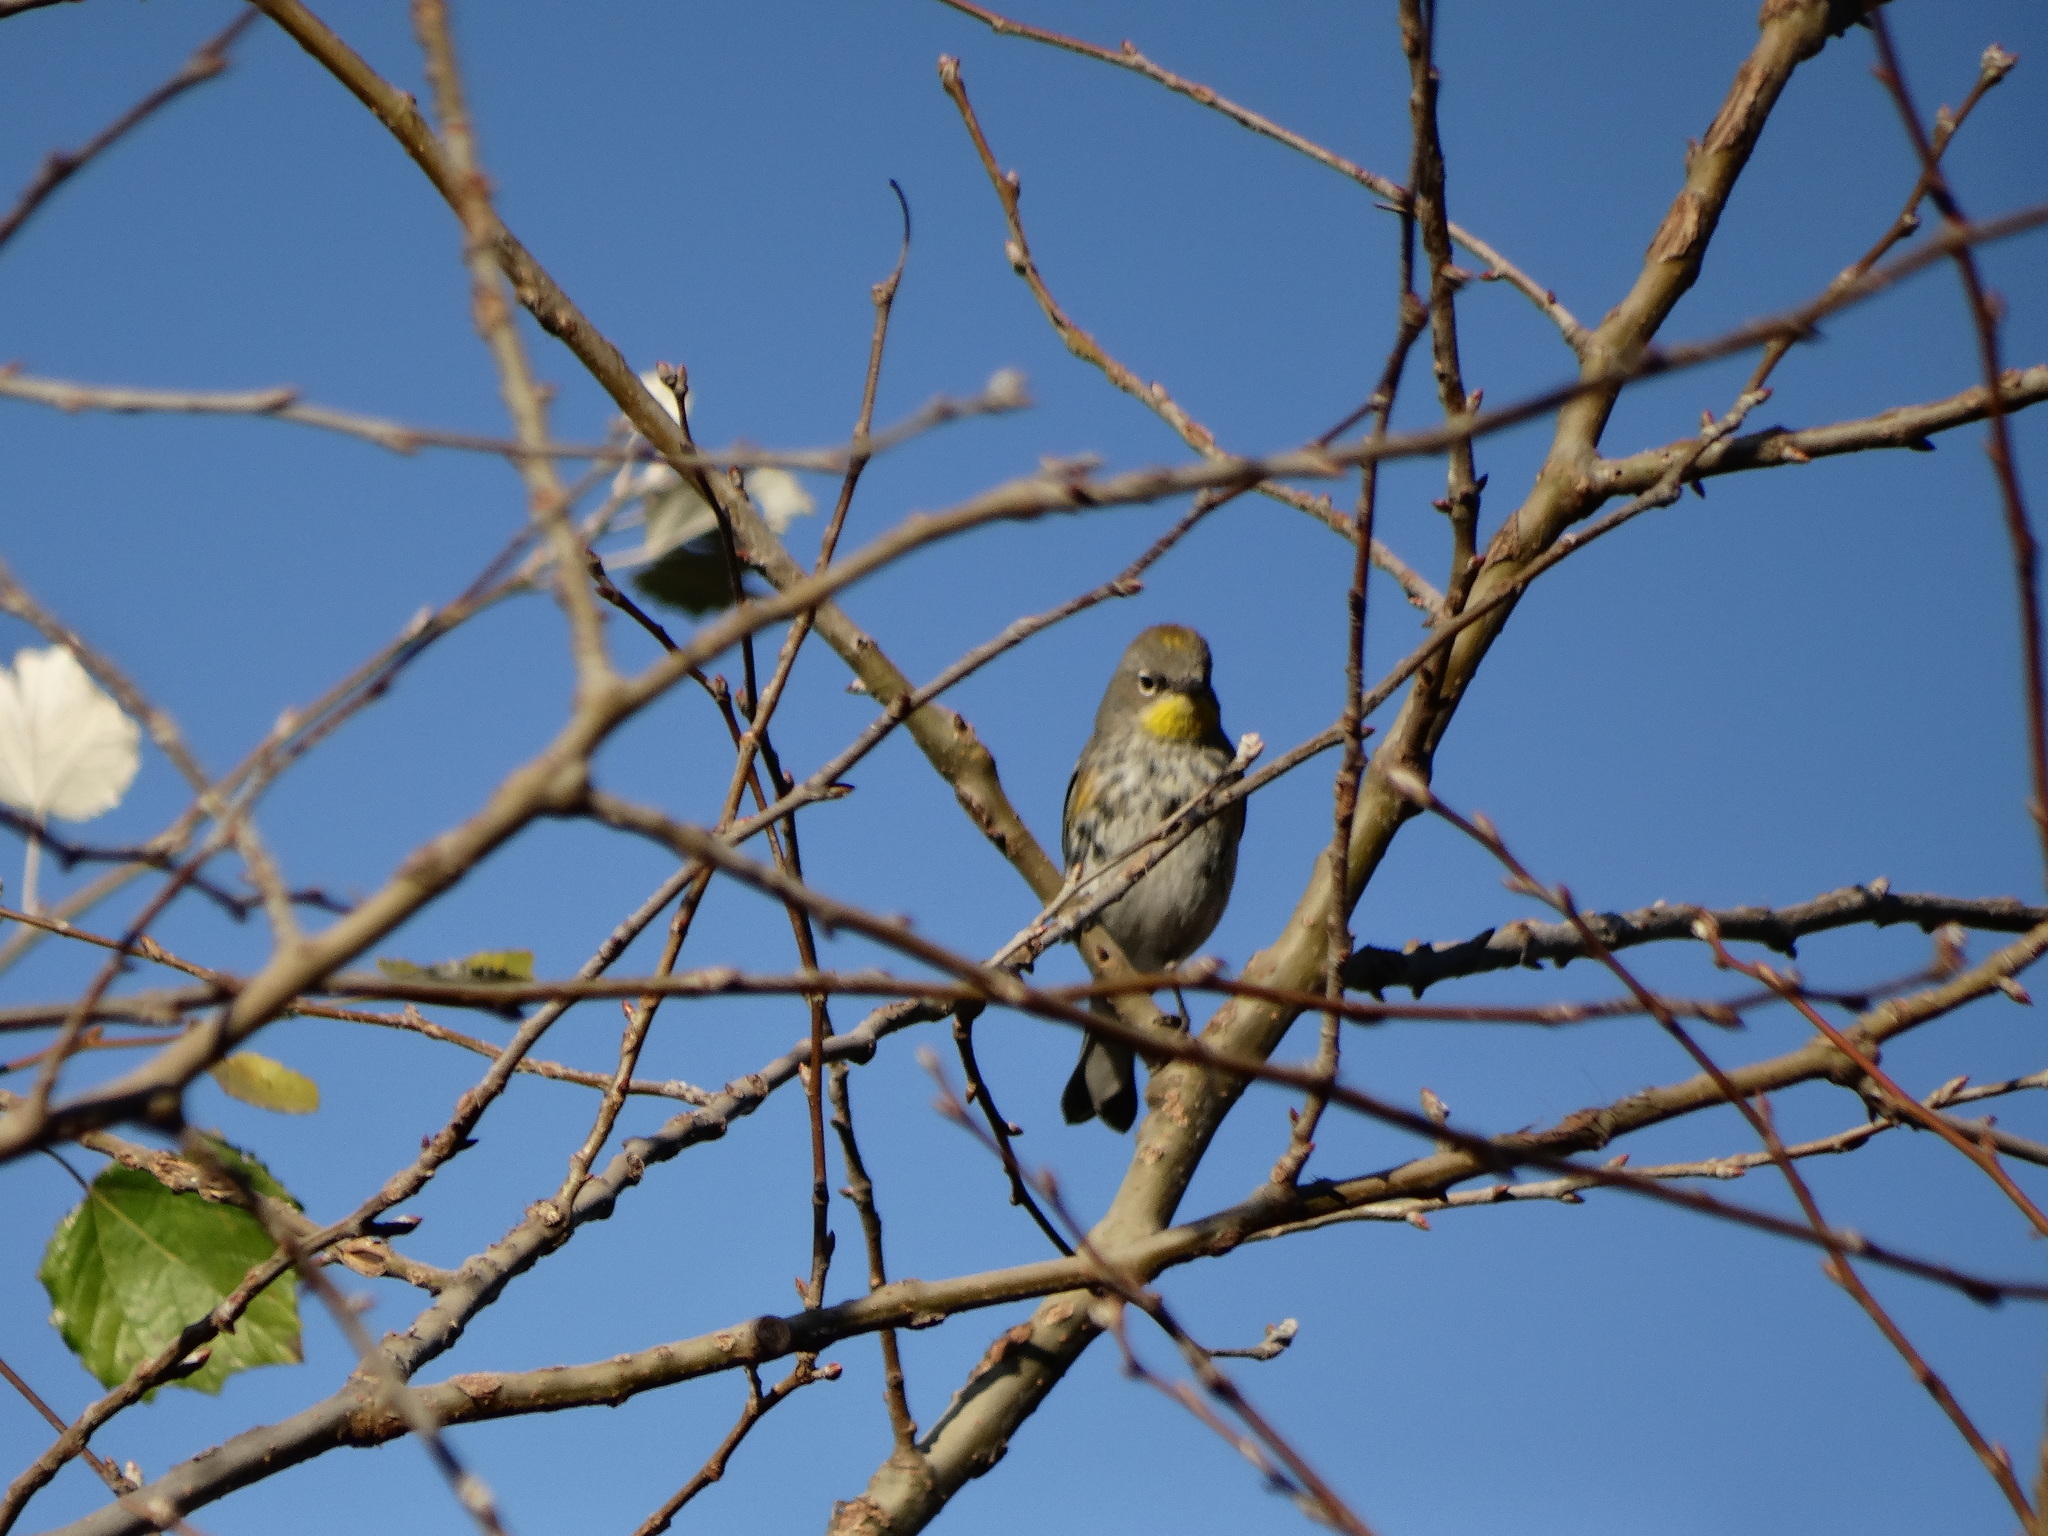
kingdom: Animalia
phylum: Chordata
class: Aves
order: Passeriformes
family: Parulidae
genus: Setophaga
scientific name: Setophaga auduboni
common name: Audubon's warbler
